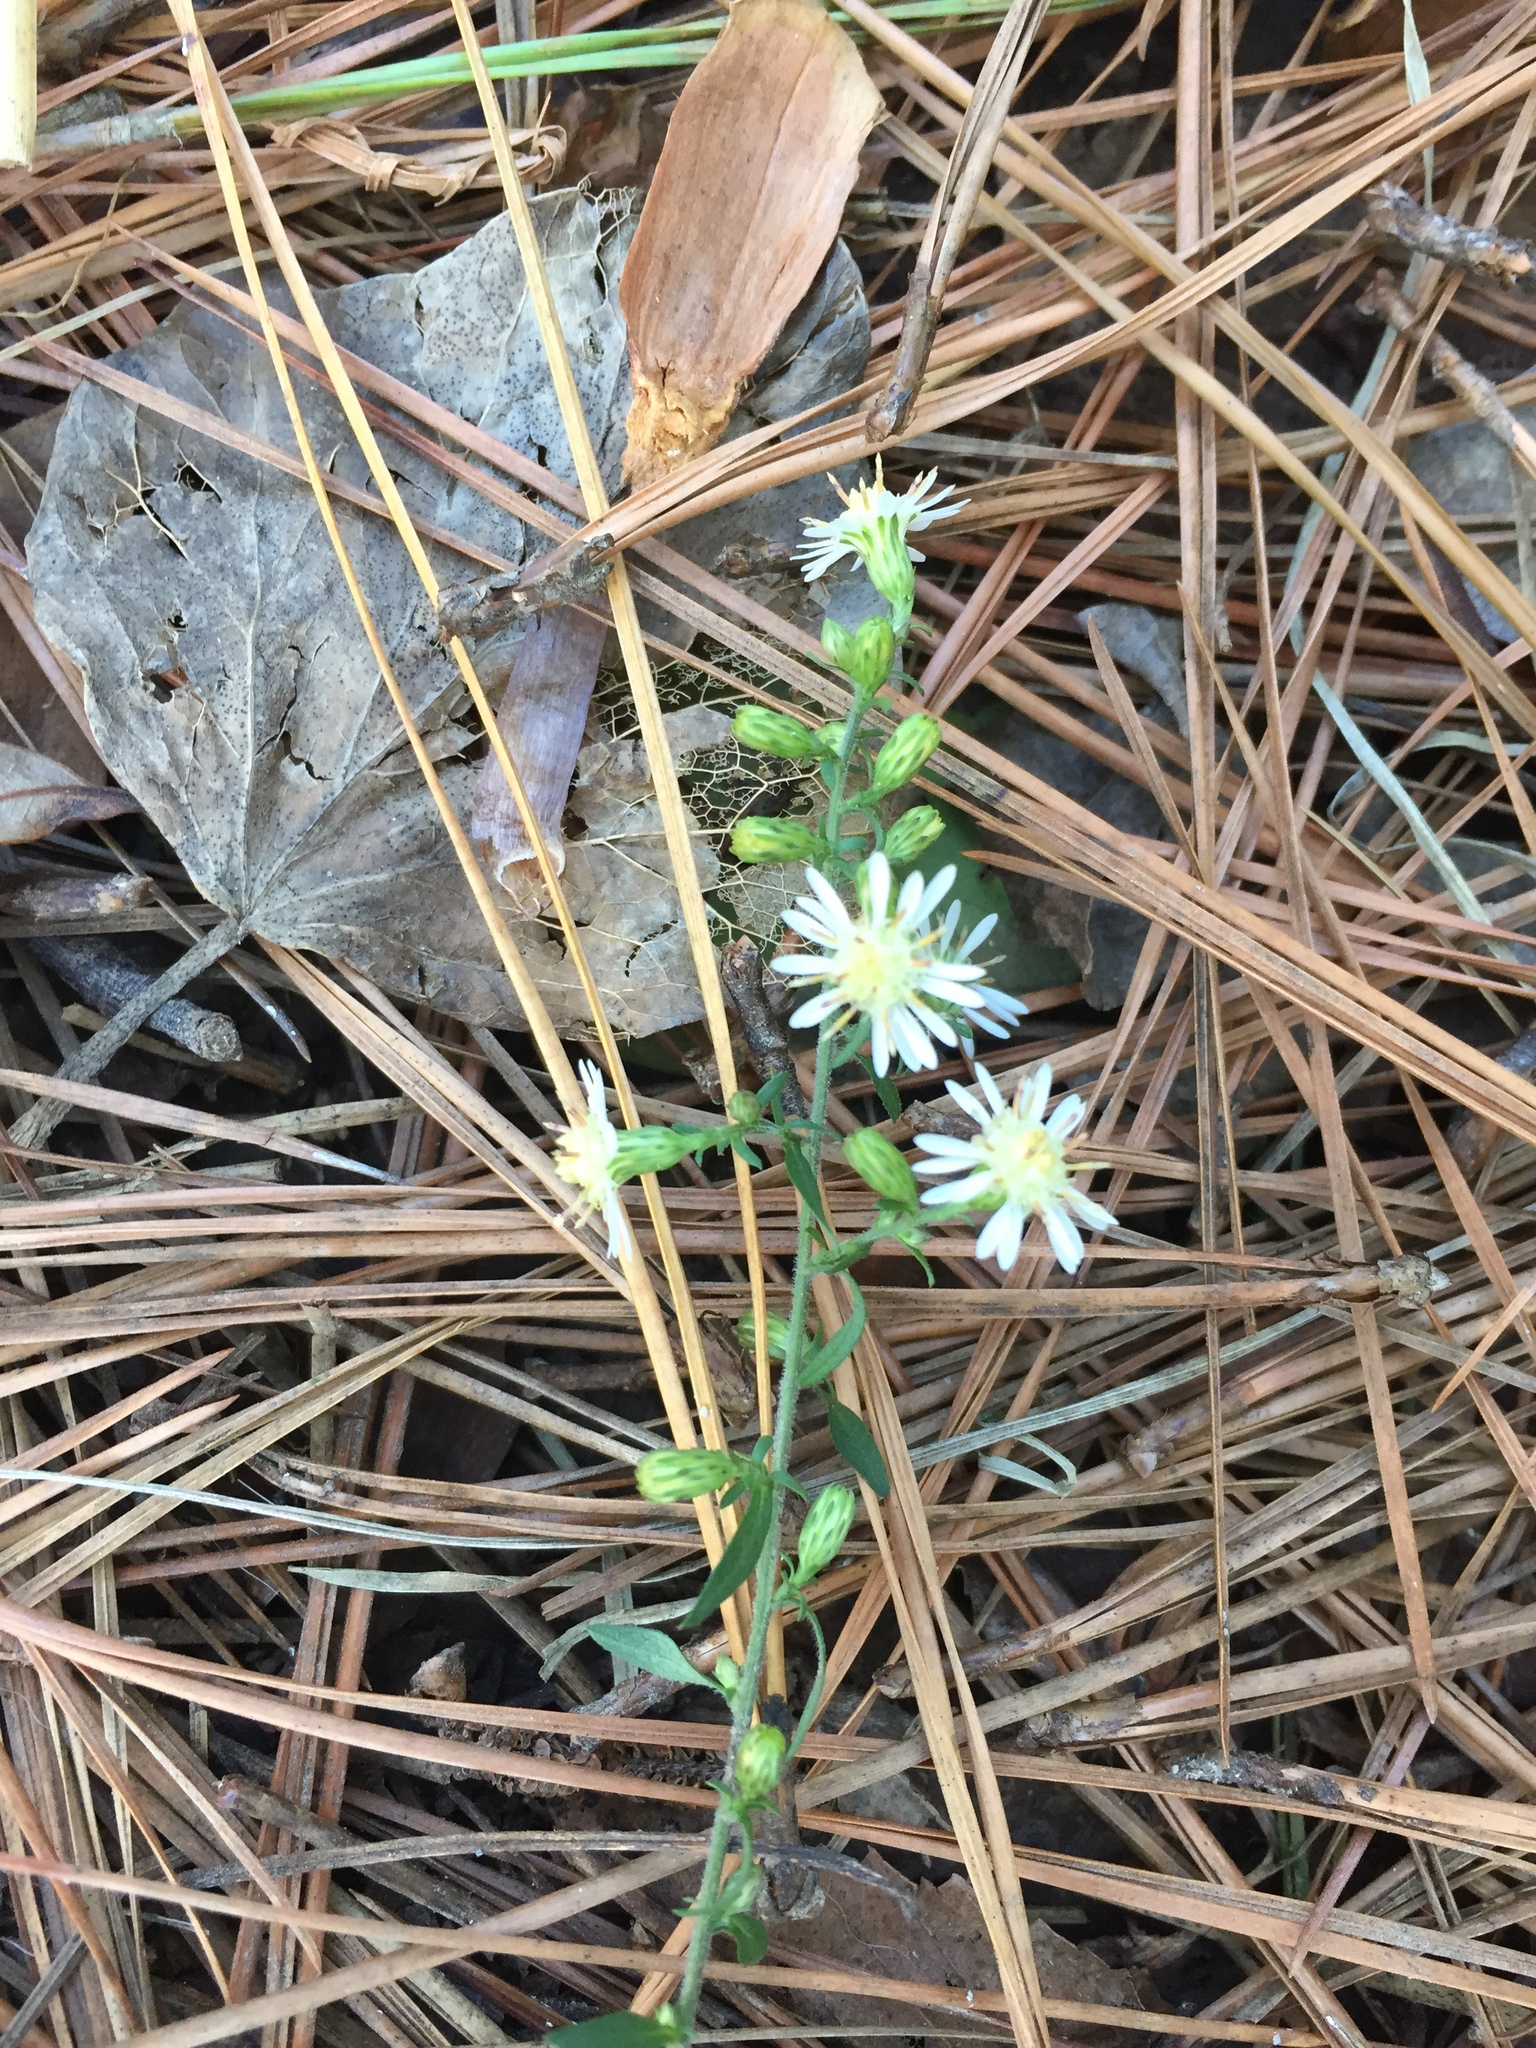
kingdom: Plantae
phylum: Tracheophyta
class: Magnoliopsida
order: Asterales
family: Asteraceae
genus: Symphyotrichum
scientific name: Symphyotrichum lateriflorum
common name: Calico aster
